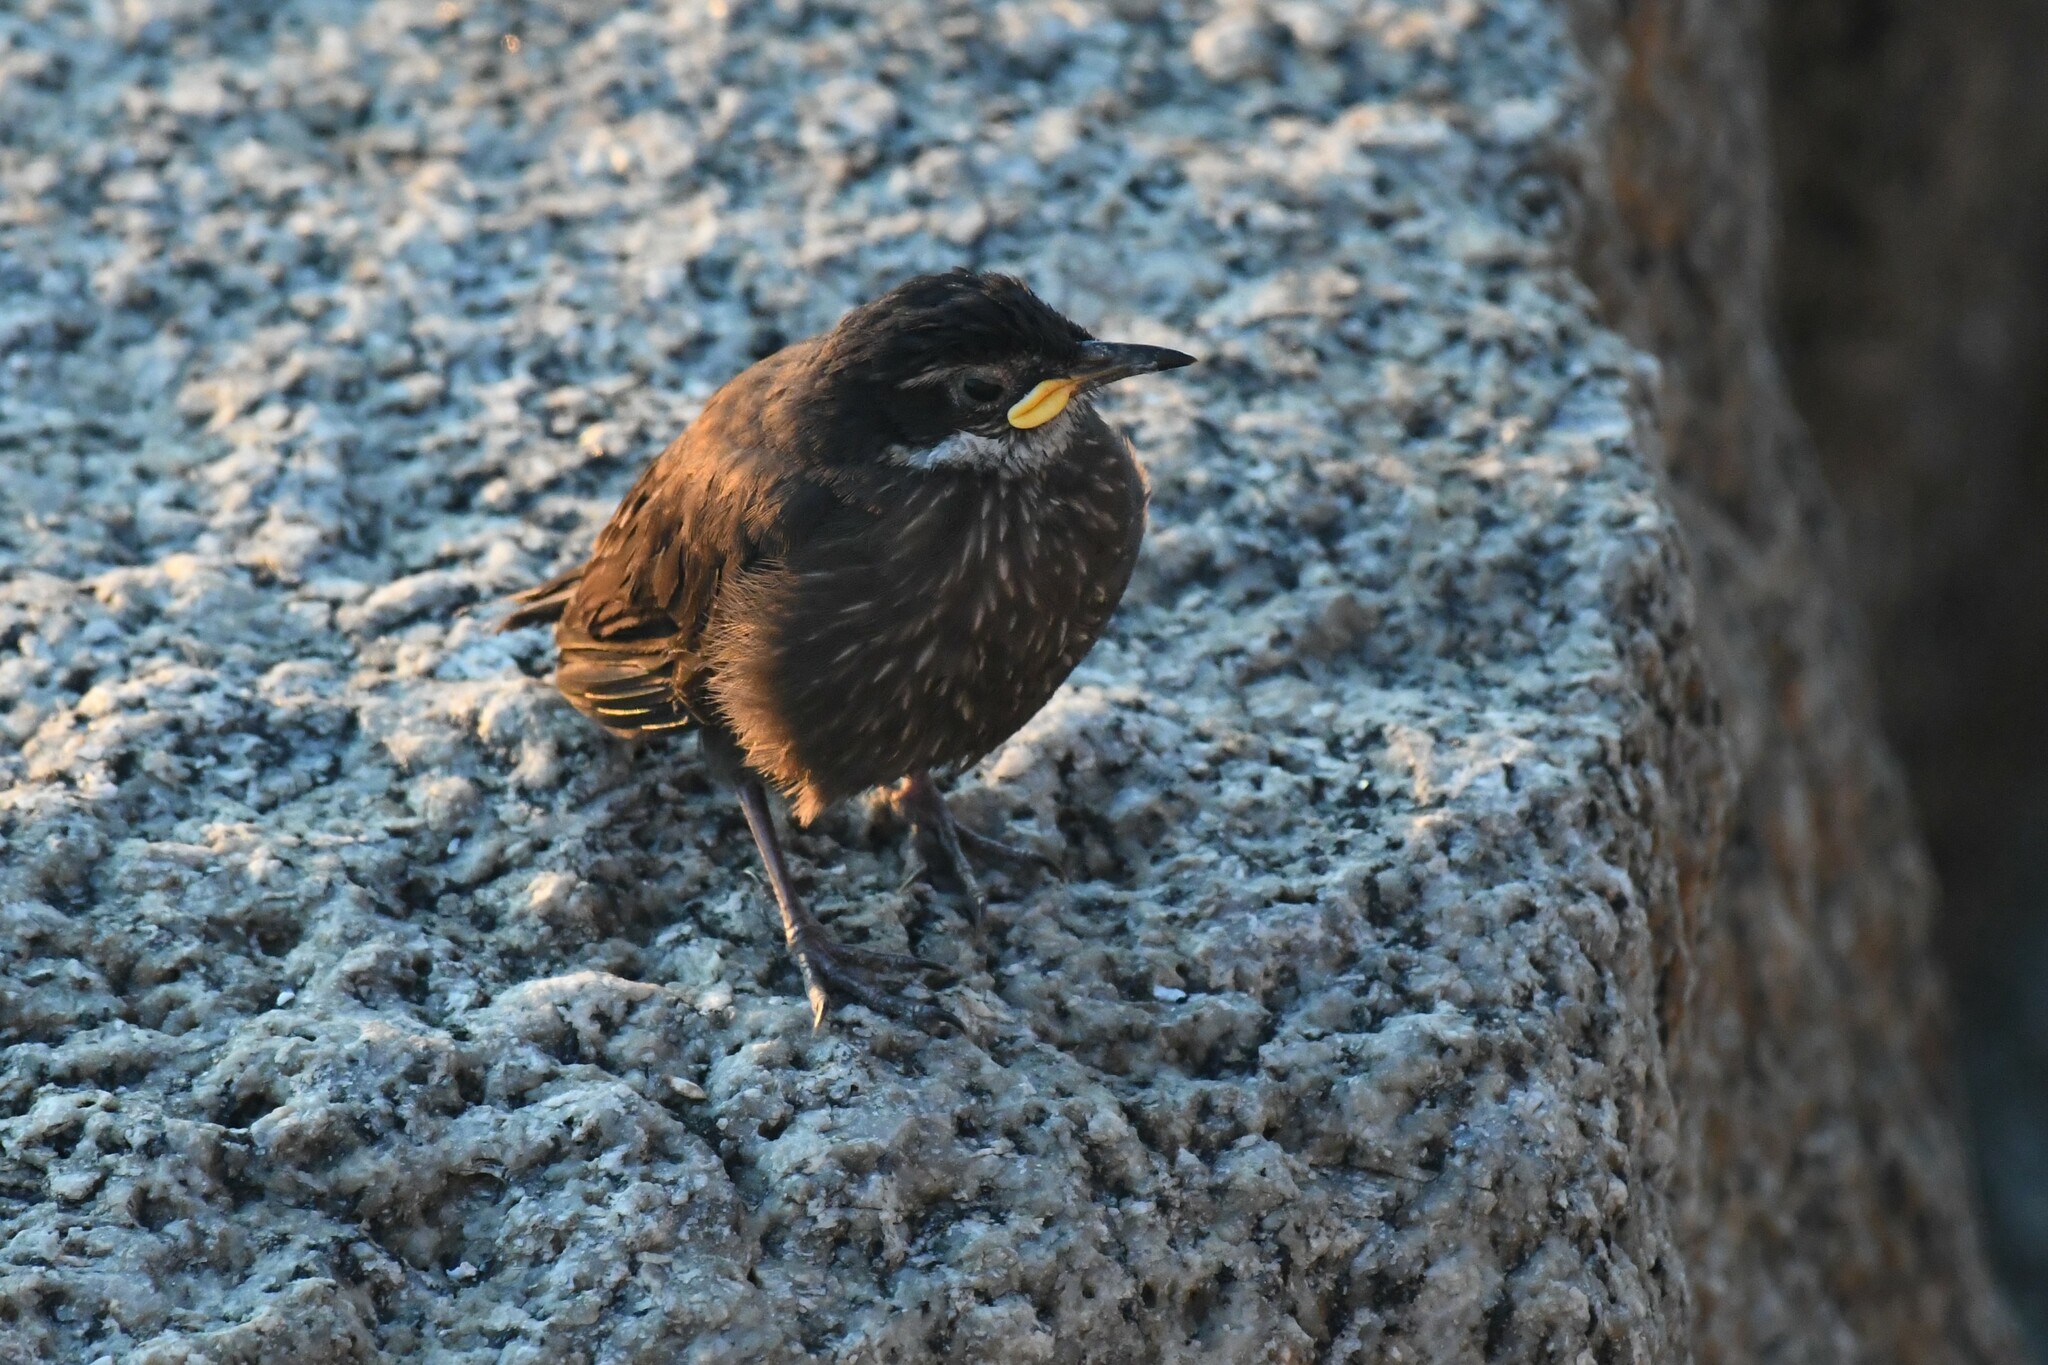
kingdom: Animalia
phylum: Chordata
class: Aves
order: Passeriformes
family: Furnariidae
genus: Cinclodes
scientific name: Cinclodes nigrofumosus
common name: Chilean seaside cinclodes
